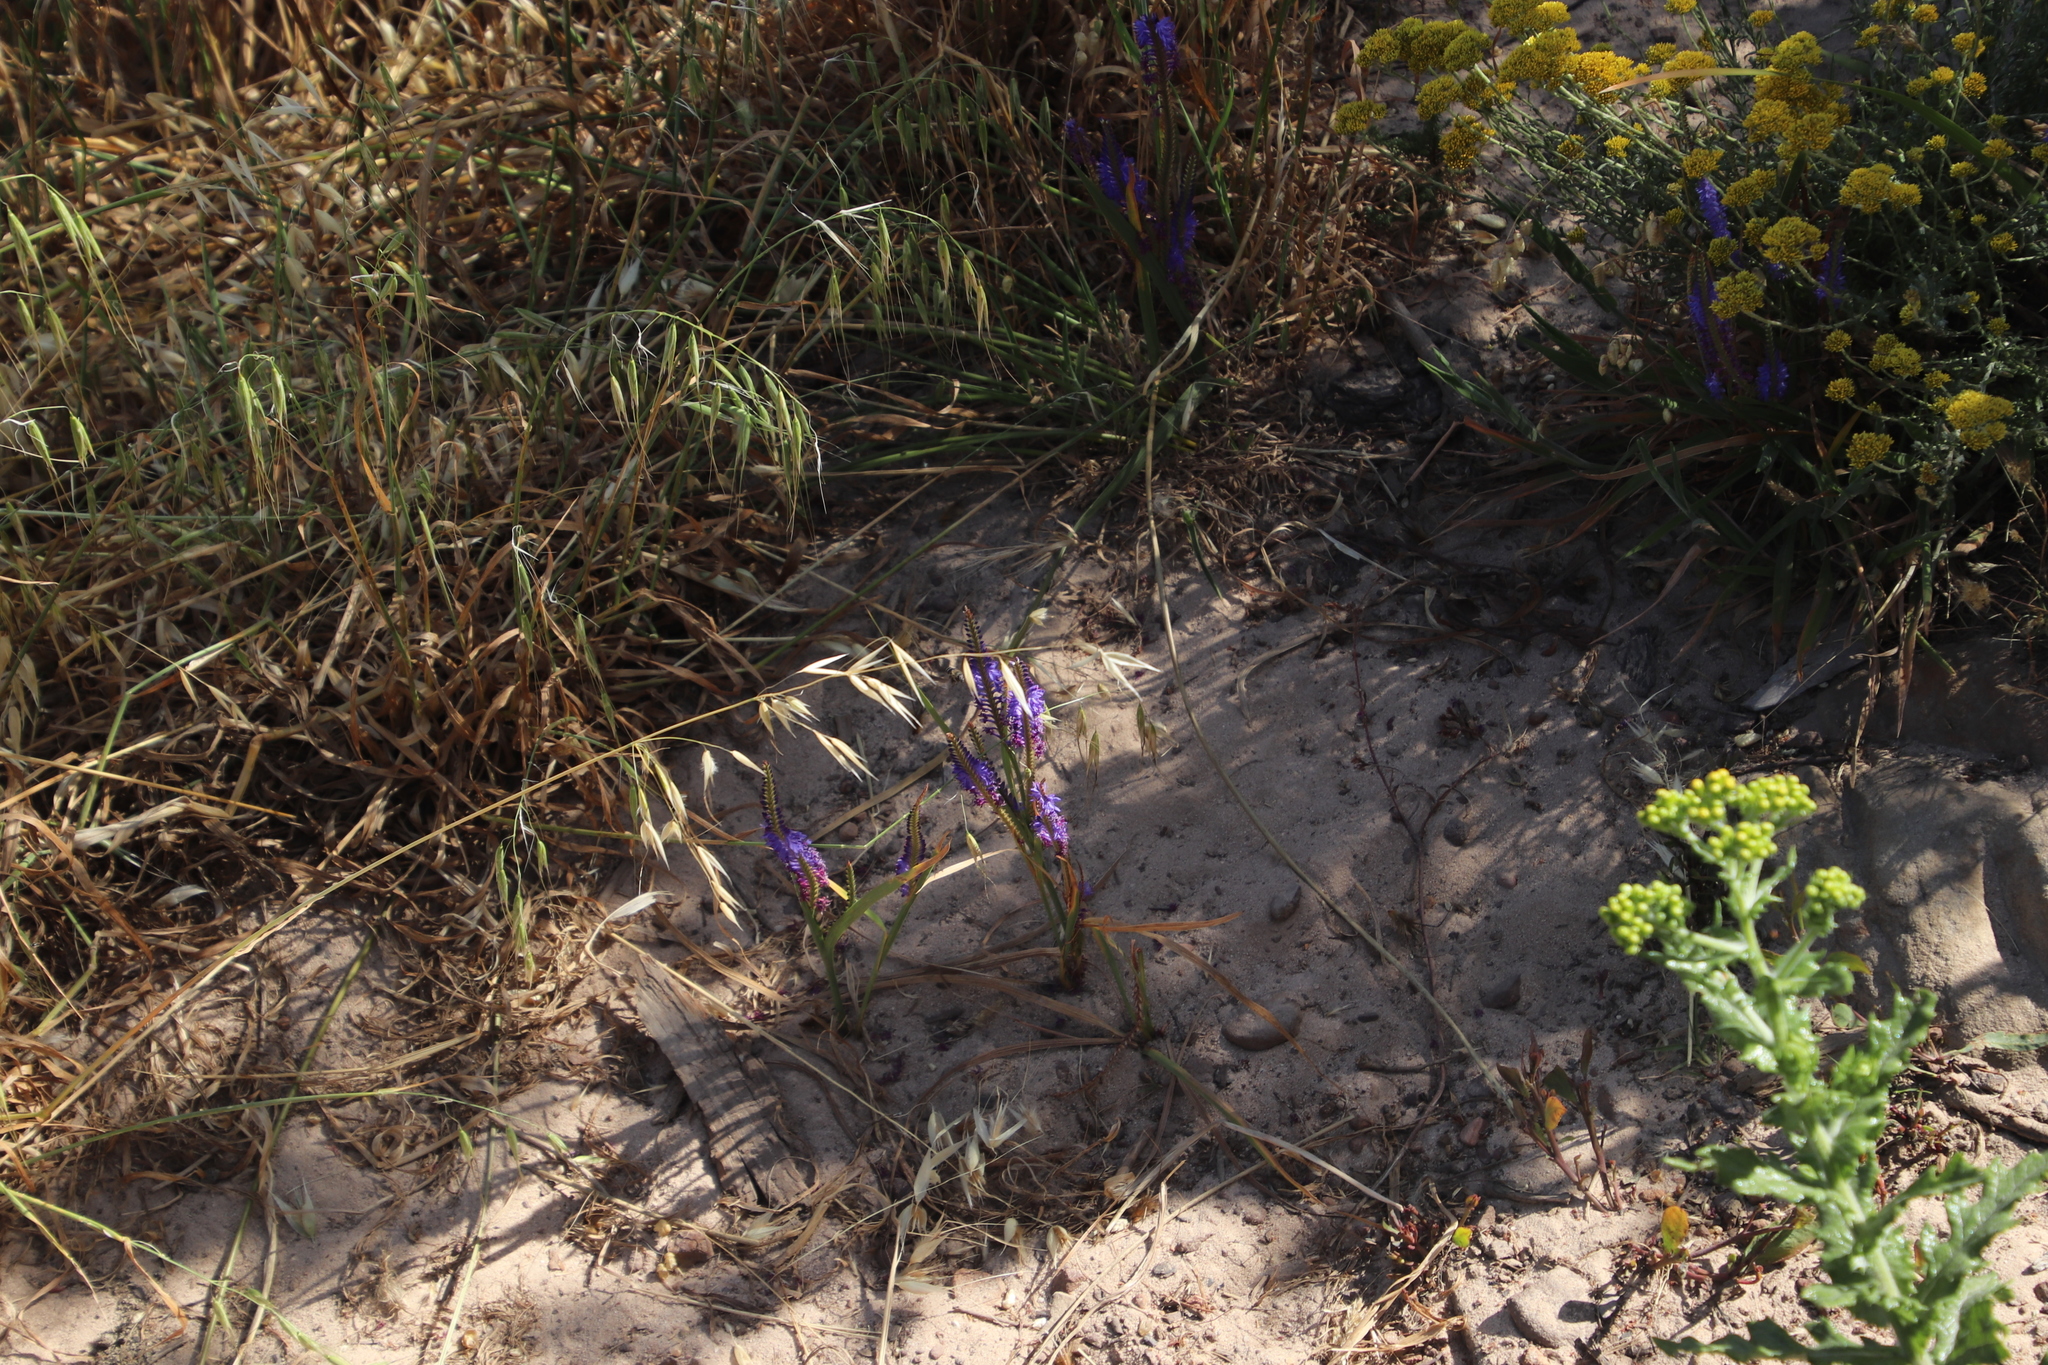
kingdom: Plantae
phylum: Tracheophyta
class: Liliopsida
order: Asparagales
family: Iridaceae
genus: Micranthus
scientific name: Micranthus alopecuroides
